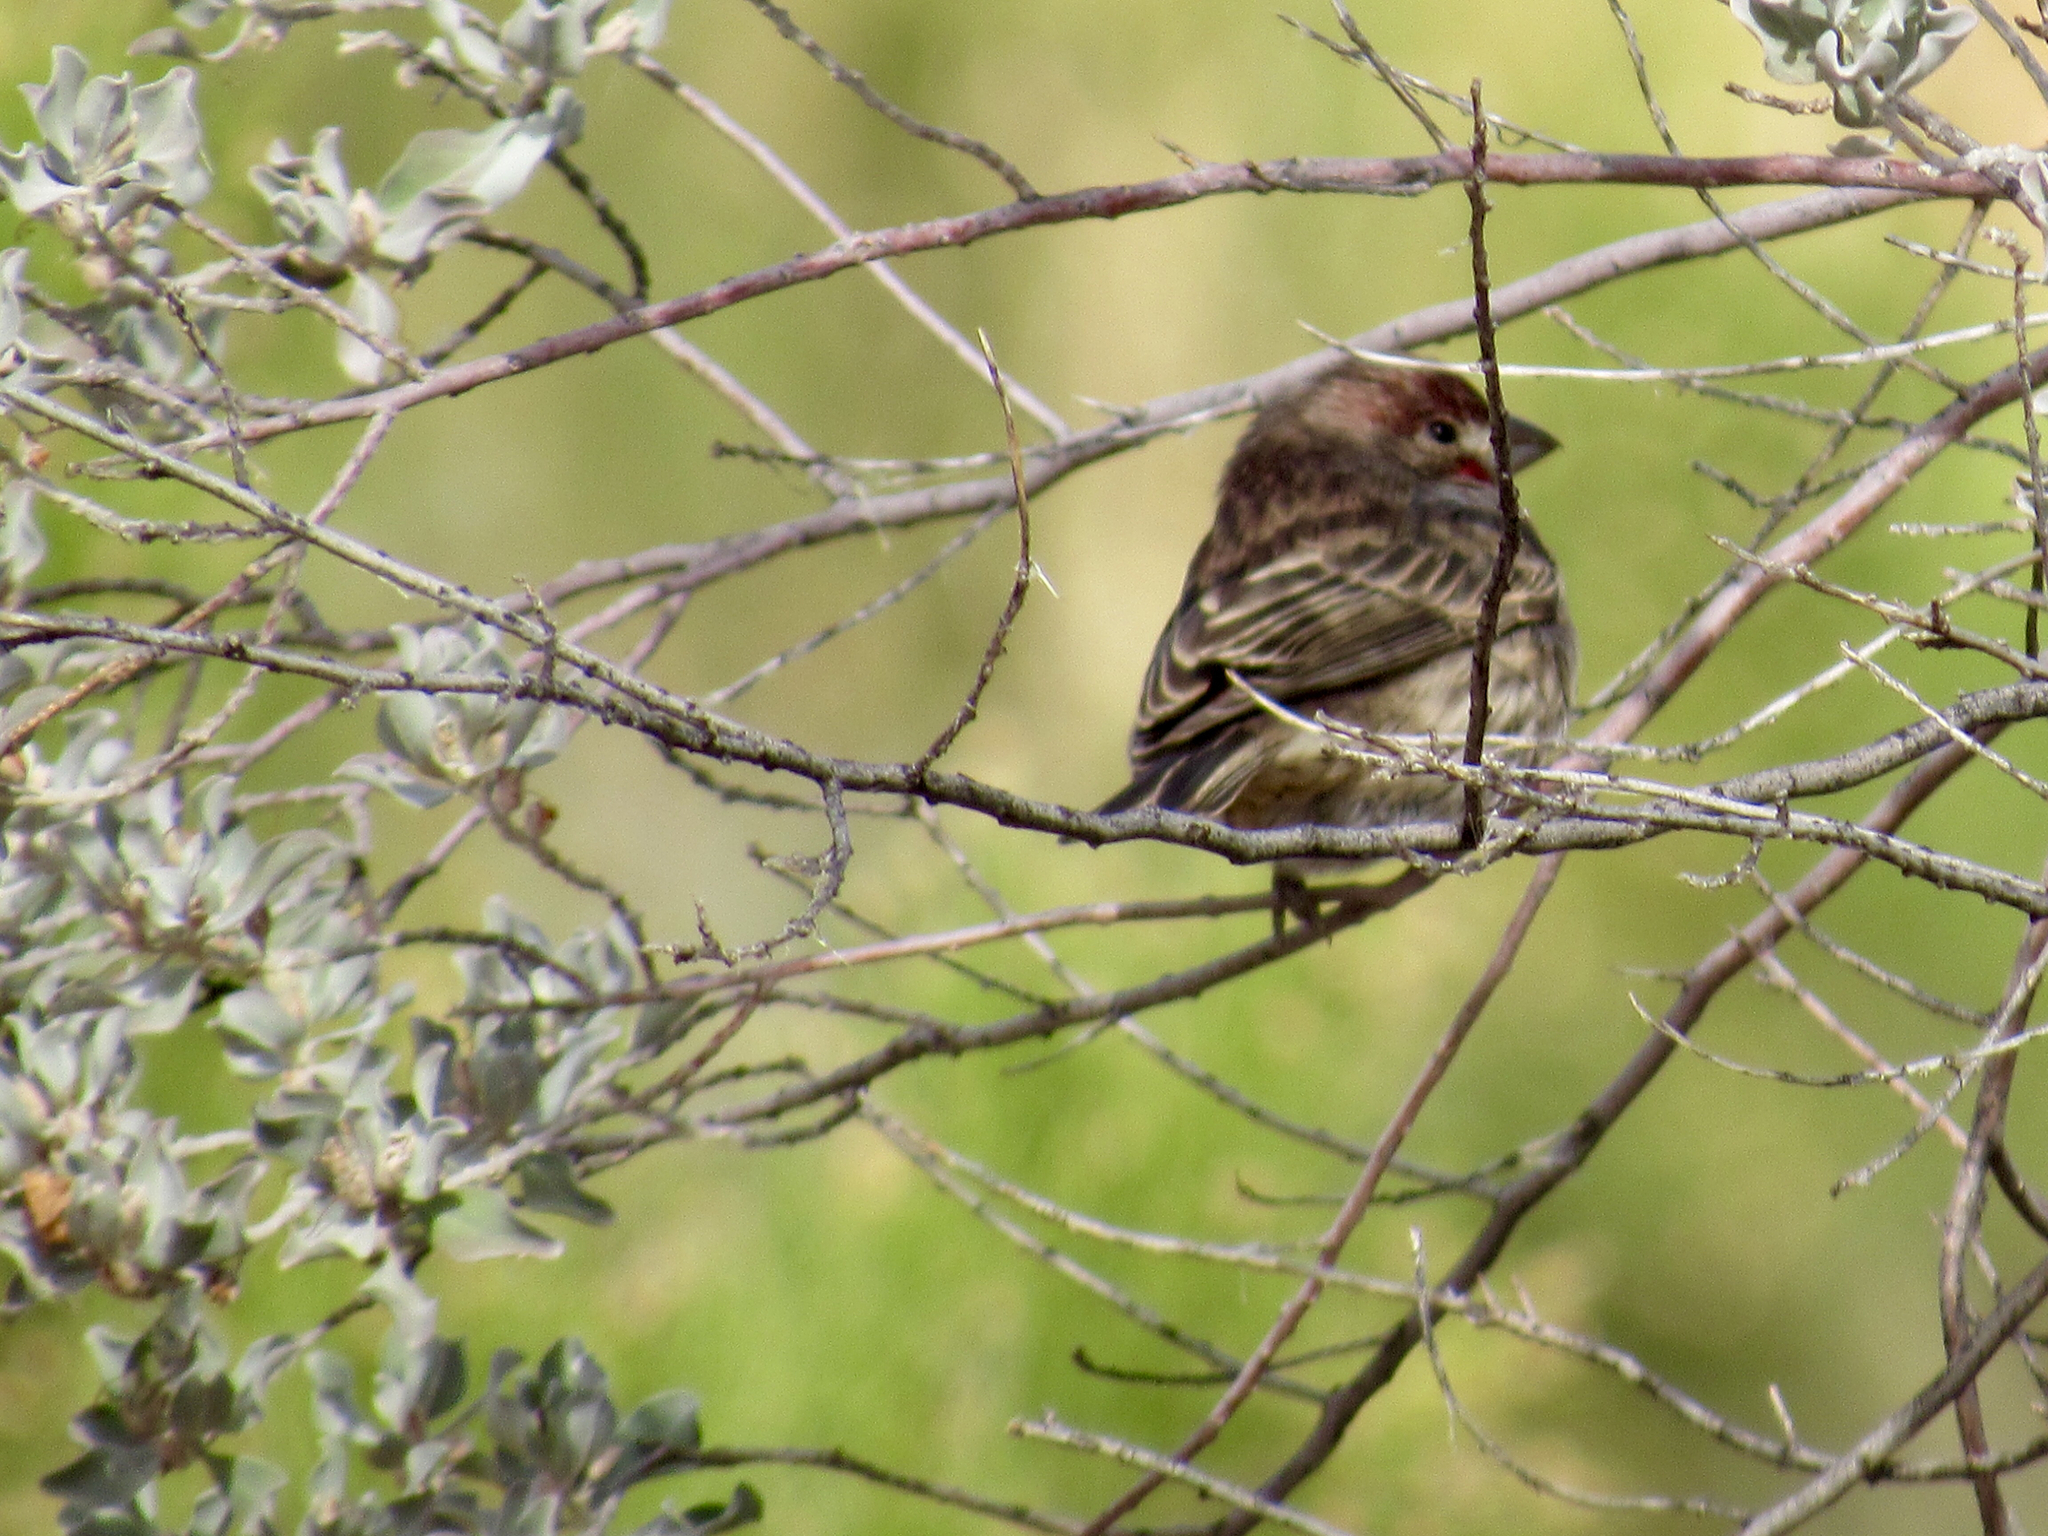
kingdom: Animalia
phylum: Chordata
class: Aves
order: Passeriformes
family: Fringillidae
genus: Haemorhous
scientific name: Haemorhous mexicanus
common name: House finch
